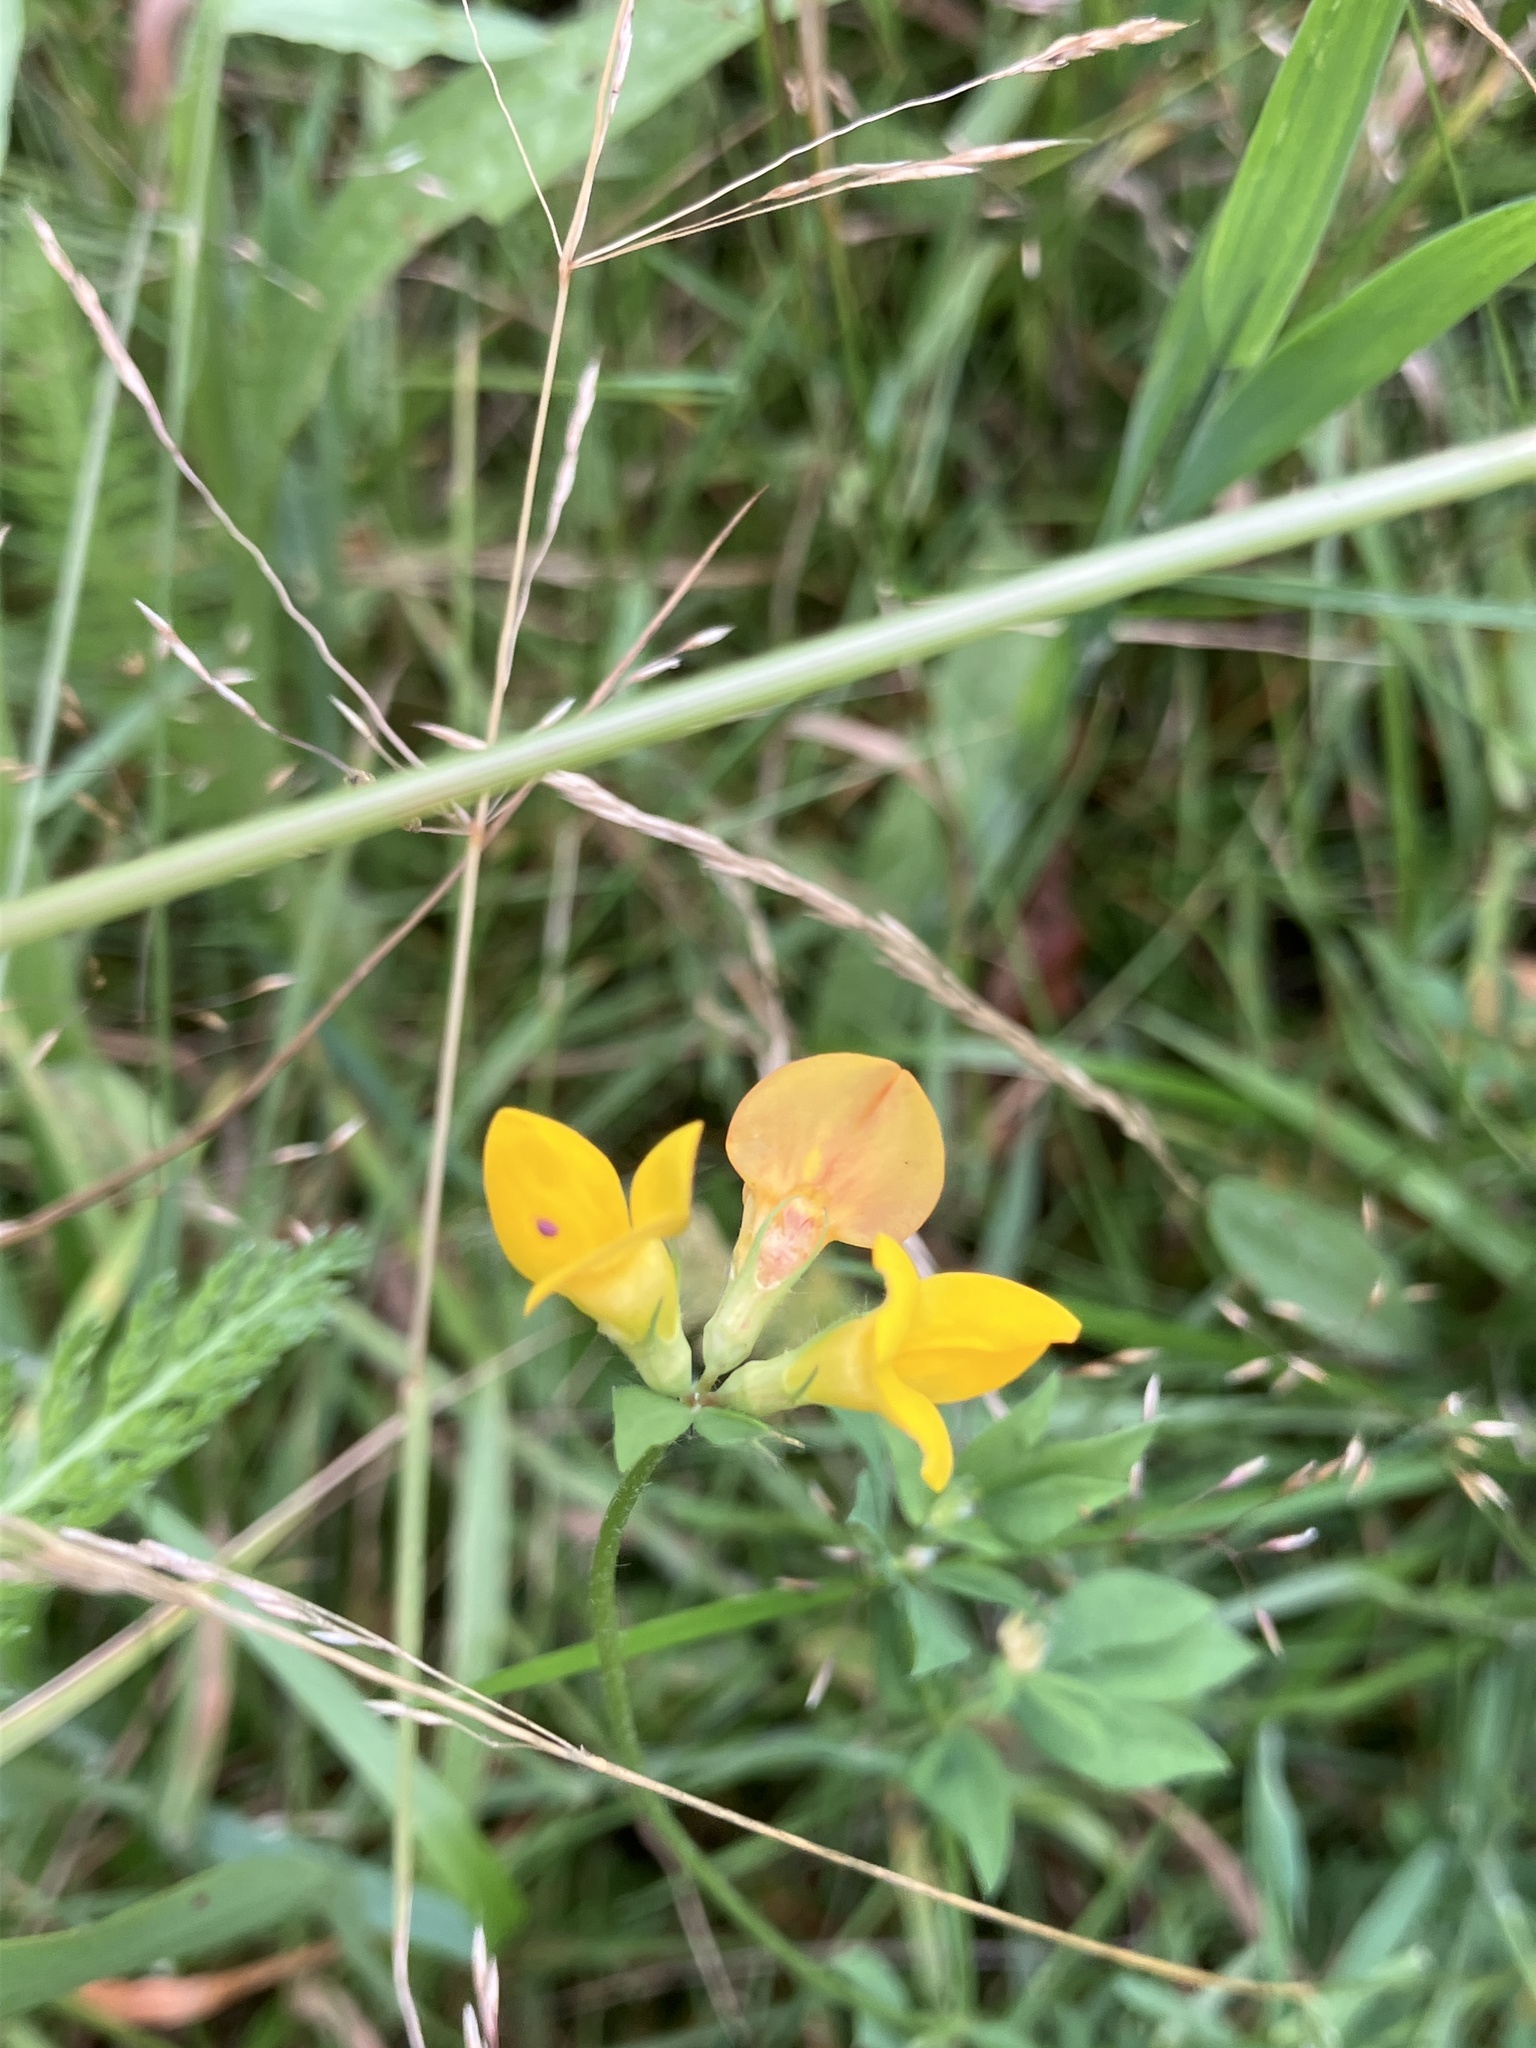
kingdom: Plantae
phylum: Tracheophyta
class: Magnoliopsida
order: Fabales
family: Fabaceae
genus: Lotus
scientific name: Lotus corniculatus
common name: Common bird's-foot-trefoil
